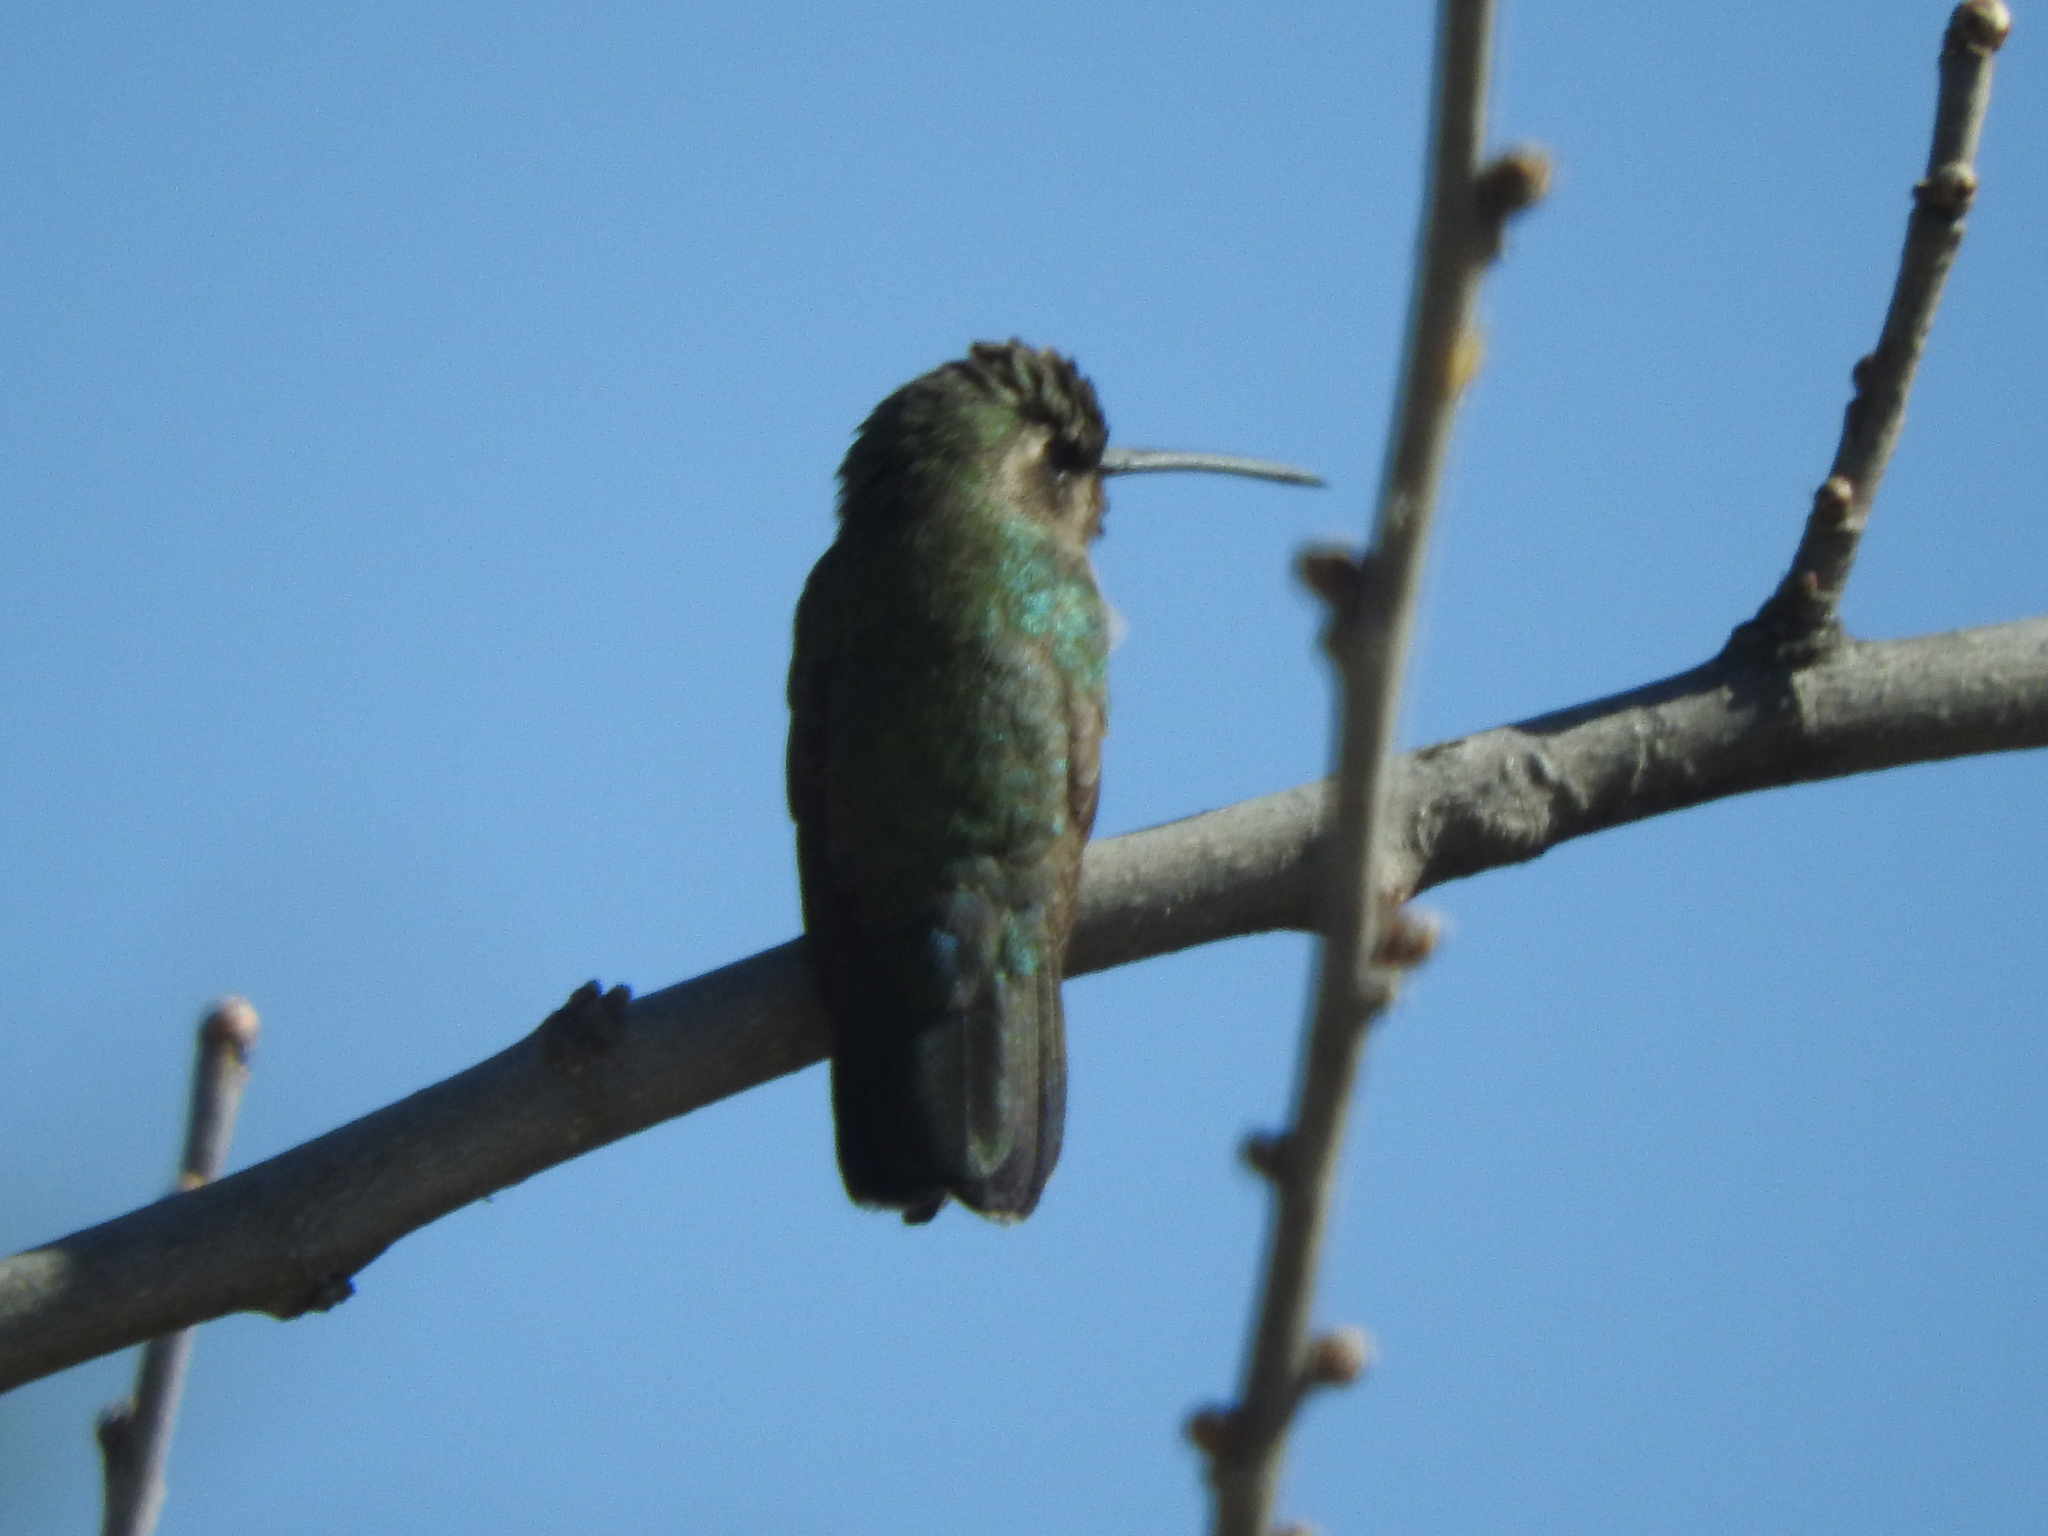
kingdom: Animalia
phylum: Chordata
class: Aves
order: Apodiformes
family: Trochilidae
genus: Cynanthus
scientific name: Cynanthus latirostris
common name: Broad-billed hummingbird
